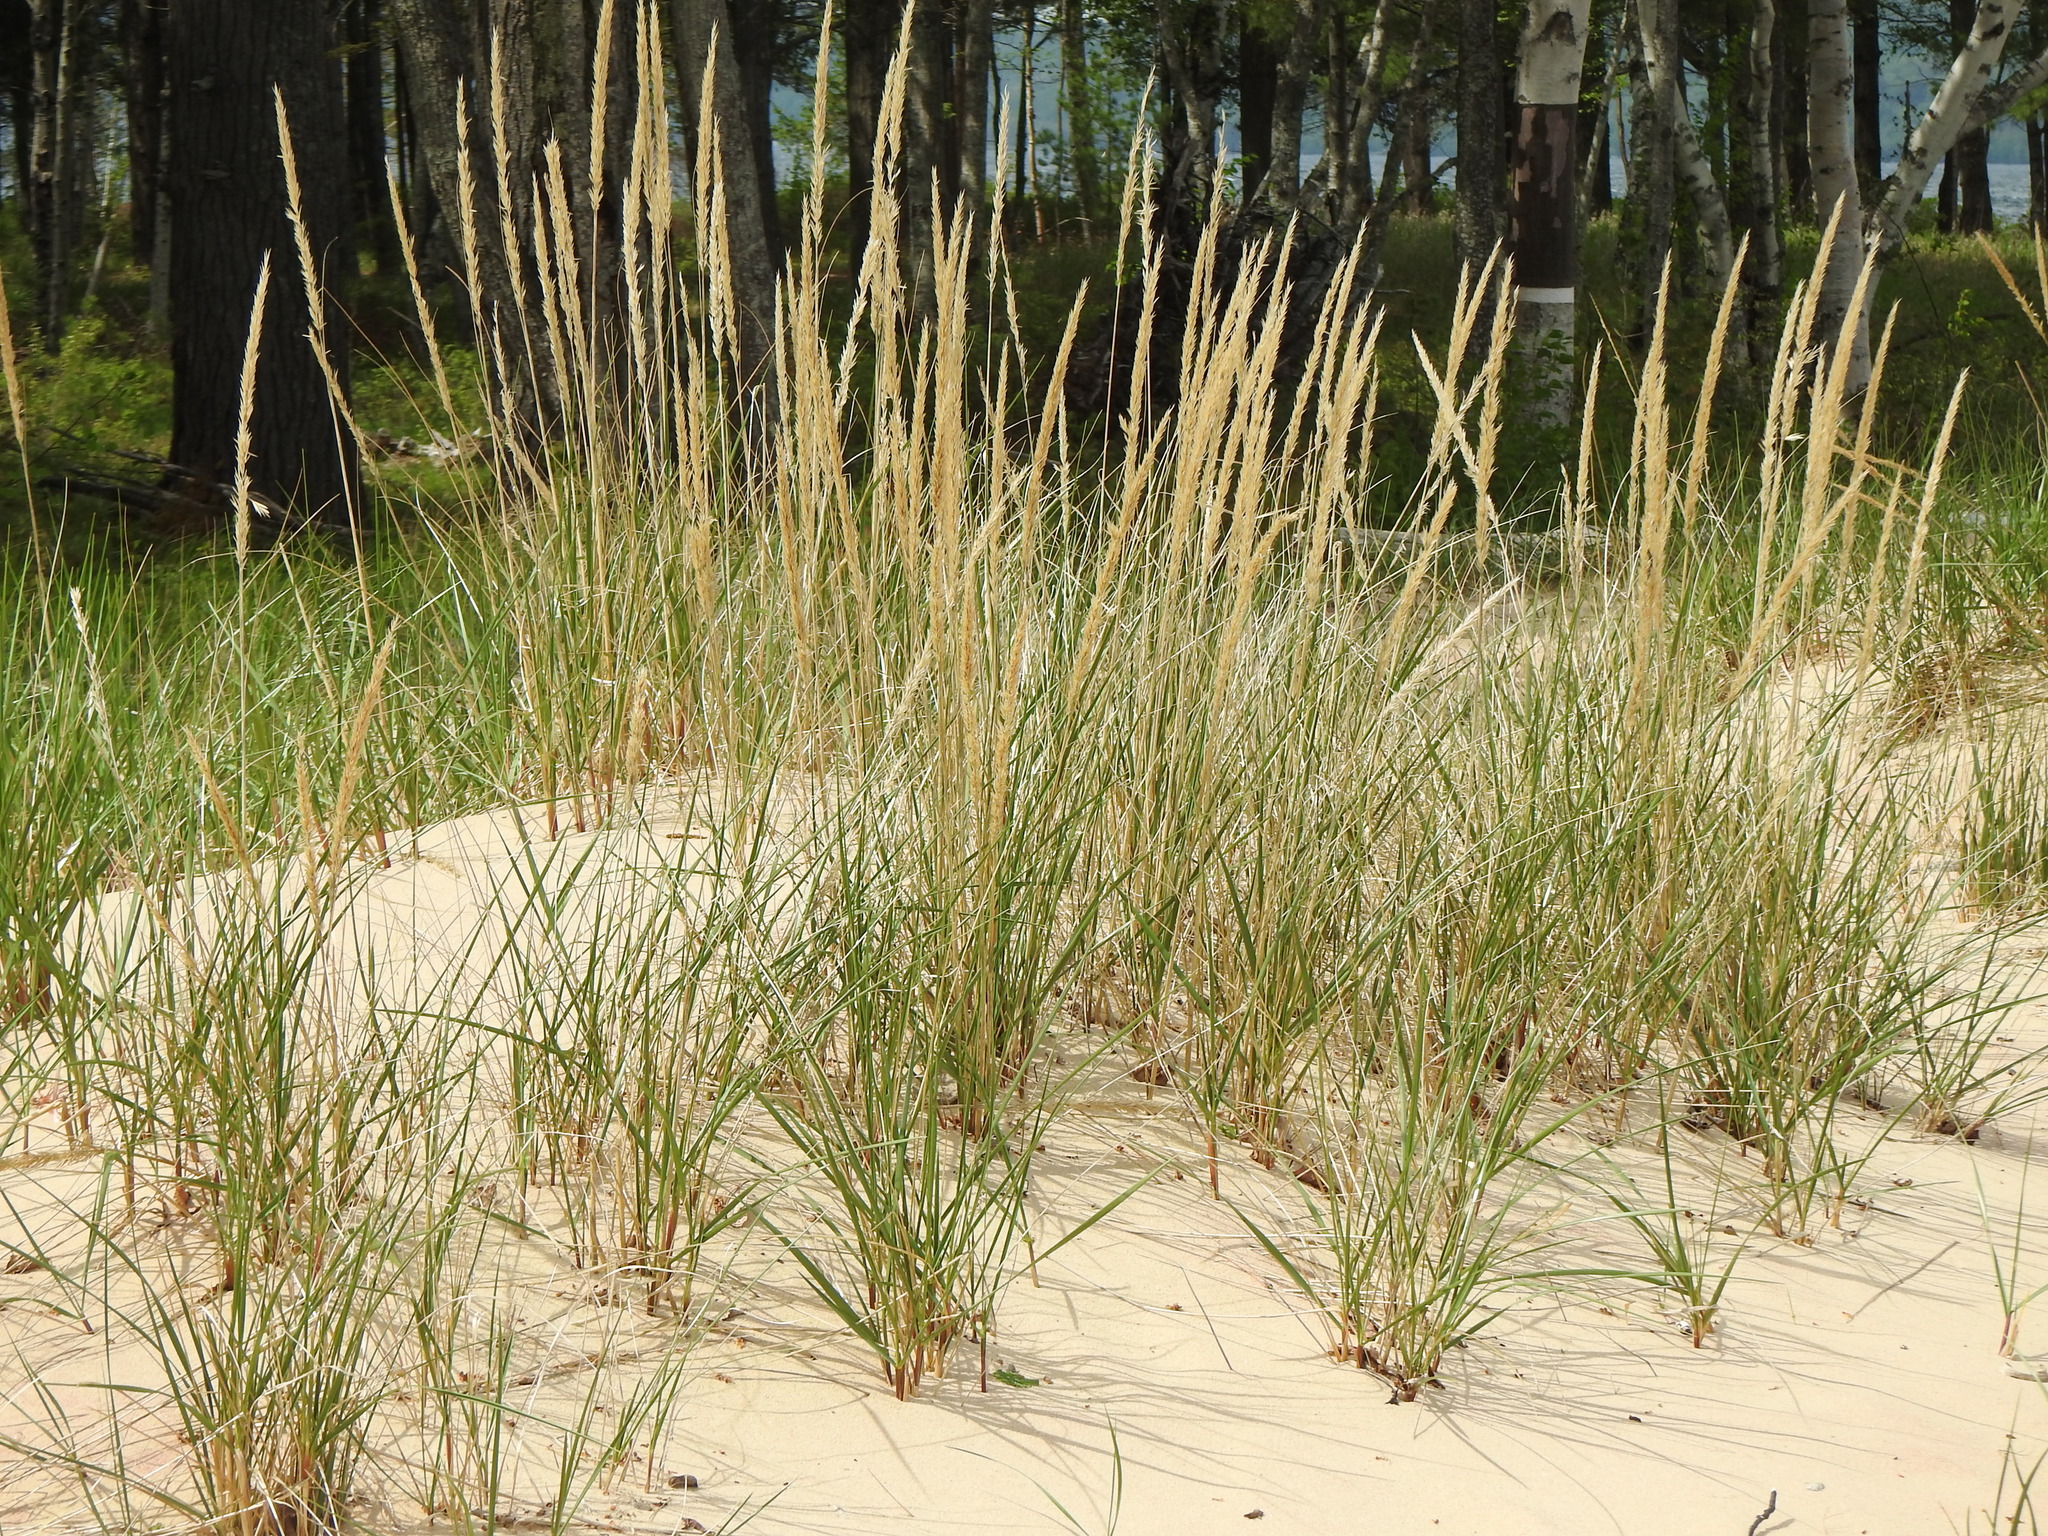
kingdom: Plantae
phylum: Tracheophyta
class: Liliopsida
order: Poales
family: Poaceae
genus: Calamagrostis
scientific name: Calamagrostis breviligulata
